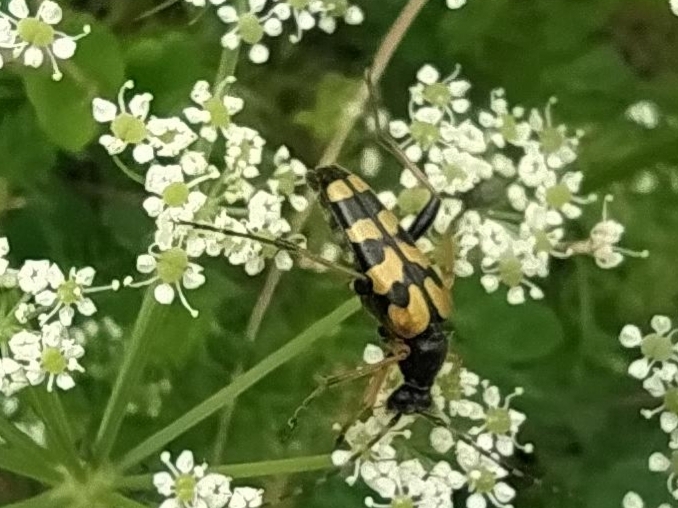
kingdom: Animalia
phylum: Arthropoda
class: Insecta
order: Coleoptera
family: Cerambycidae
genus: Rutpela
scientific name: Rutpela maculata
